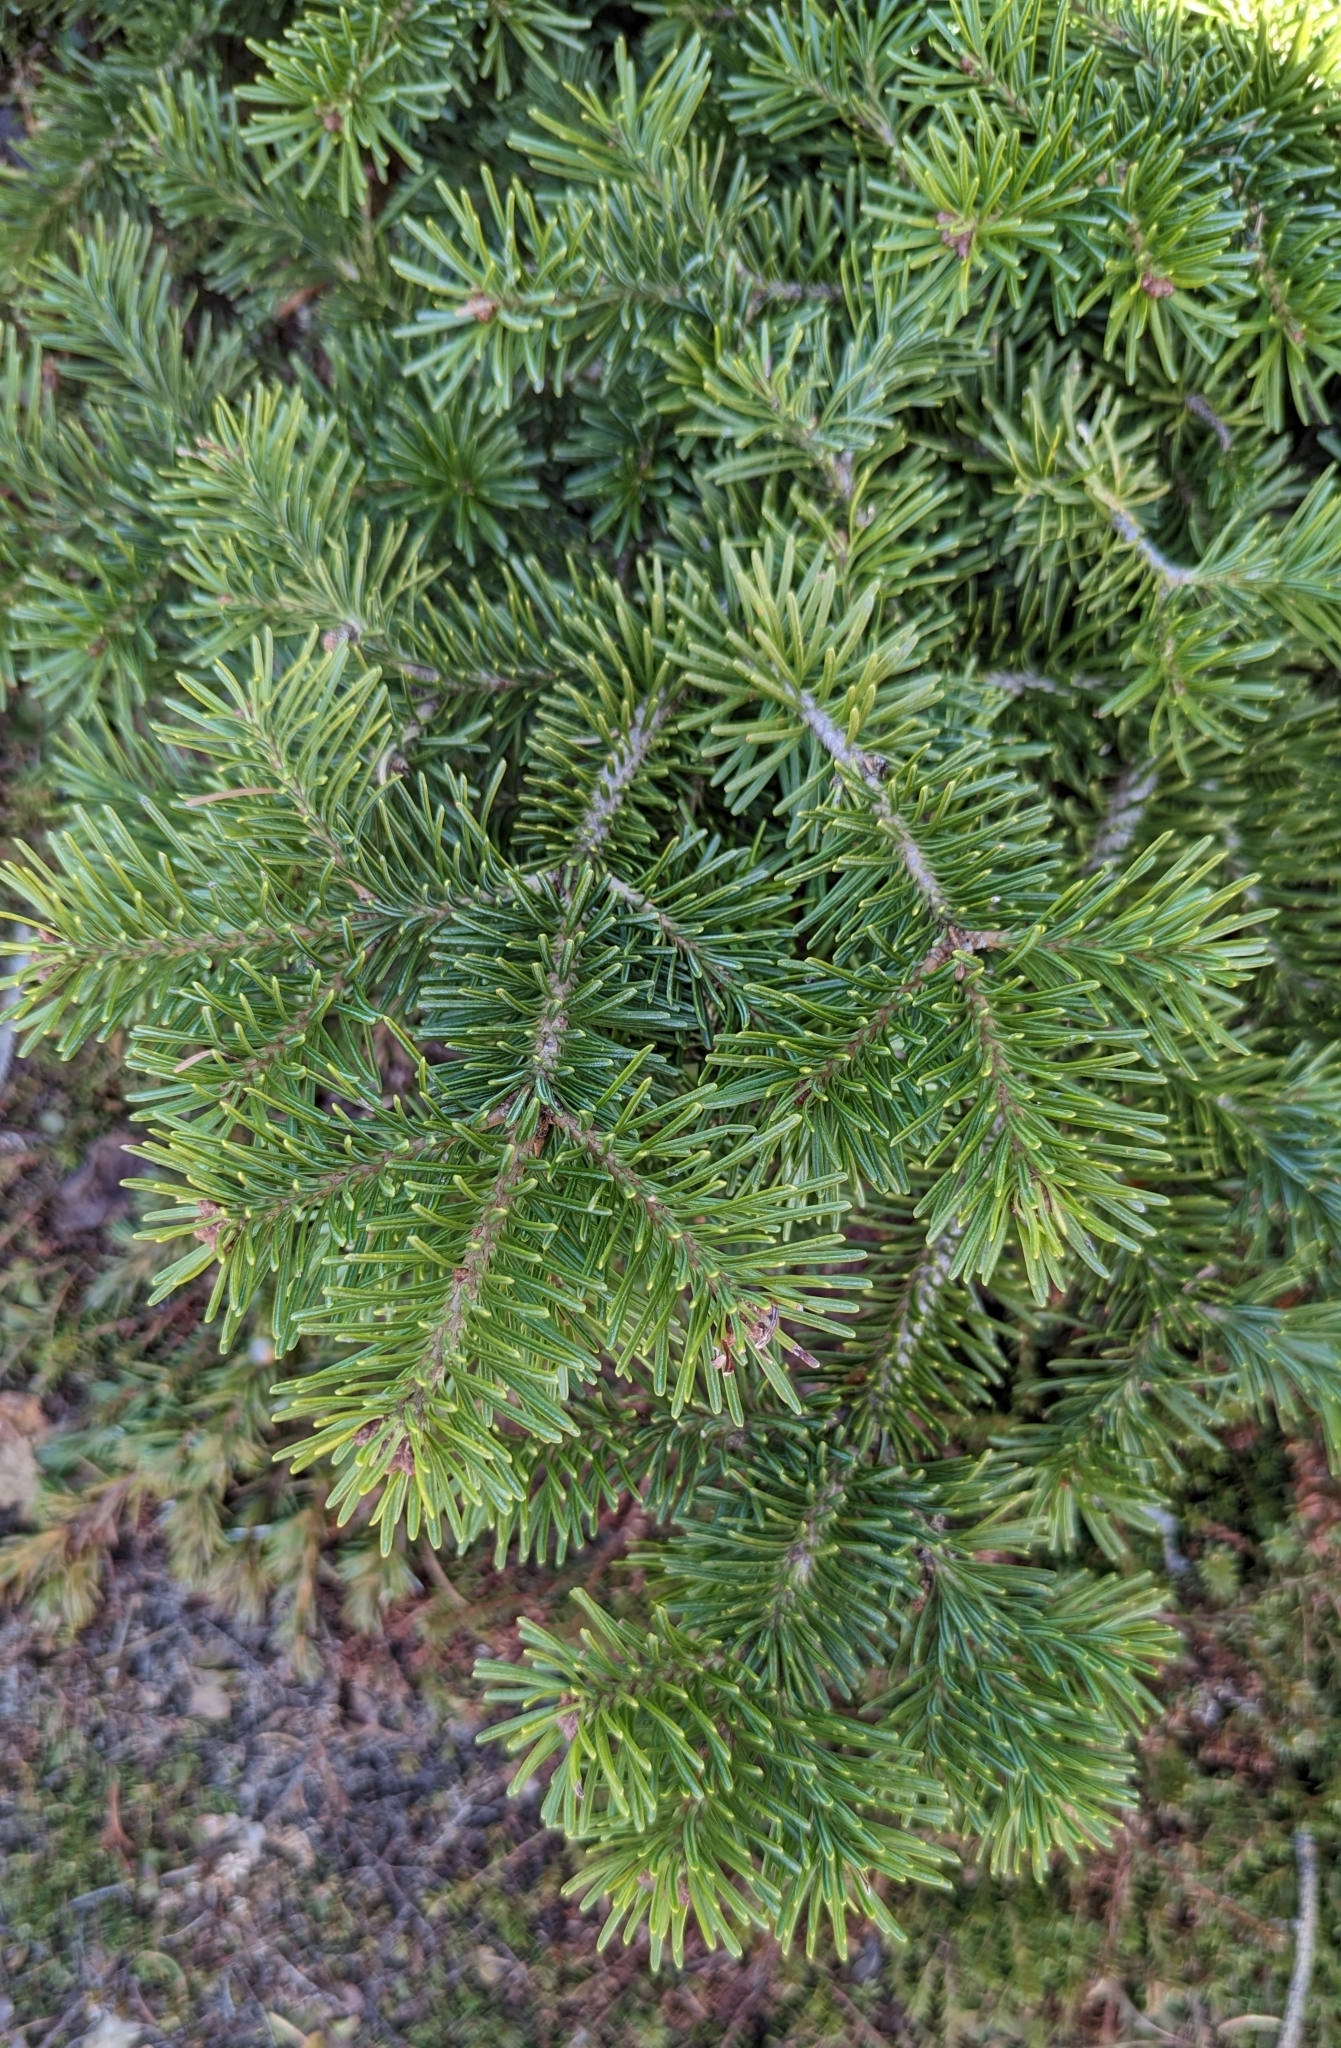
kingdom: Plantae
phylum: Tracheophyta
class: Pinopsida
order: Pinales
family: Pinaceae
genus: Abies
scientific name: Abies lasiocarpa
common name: Subalpine fir
